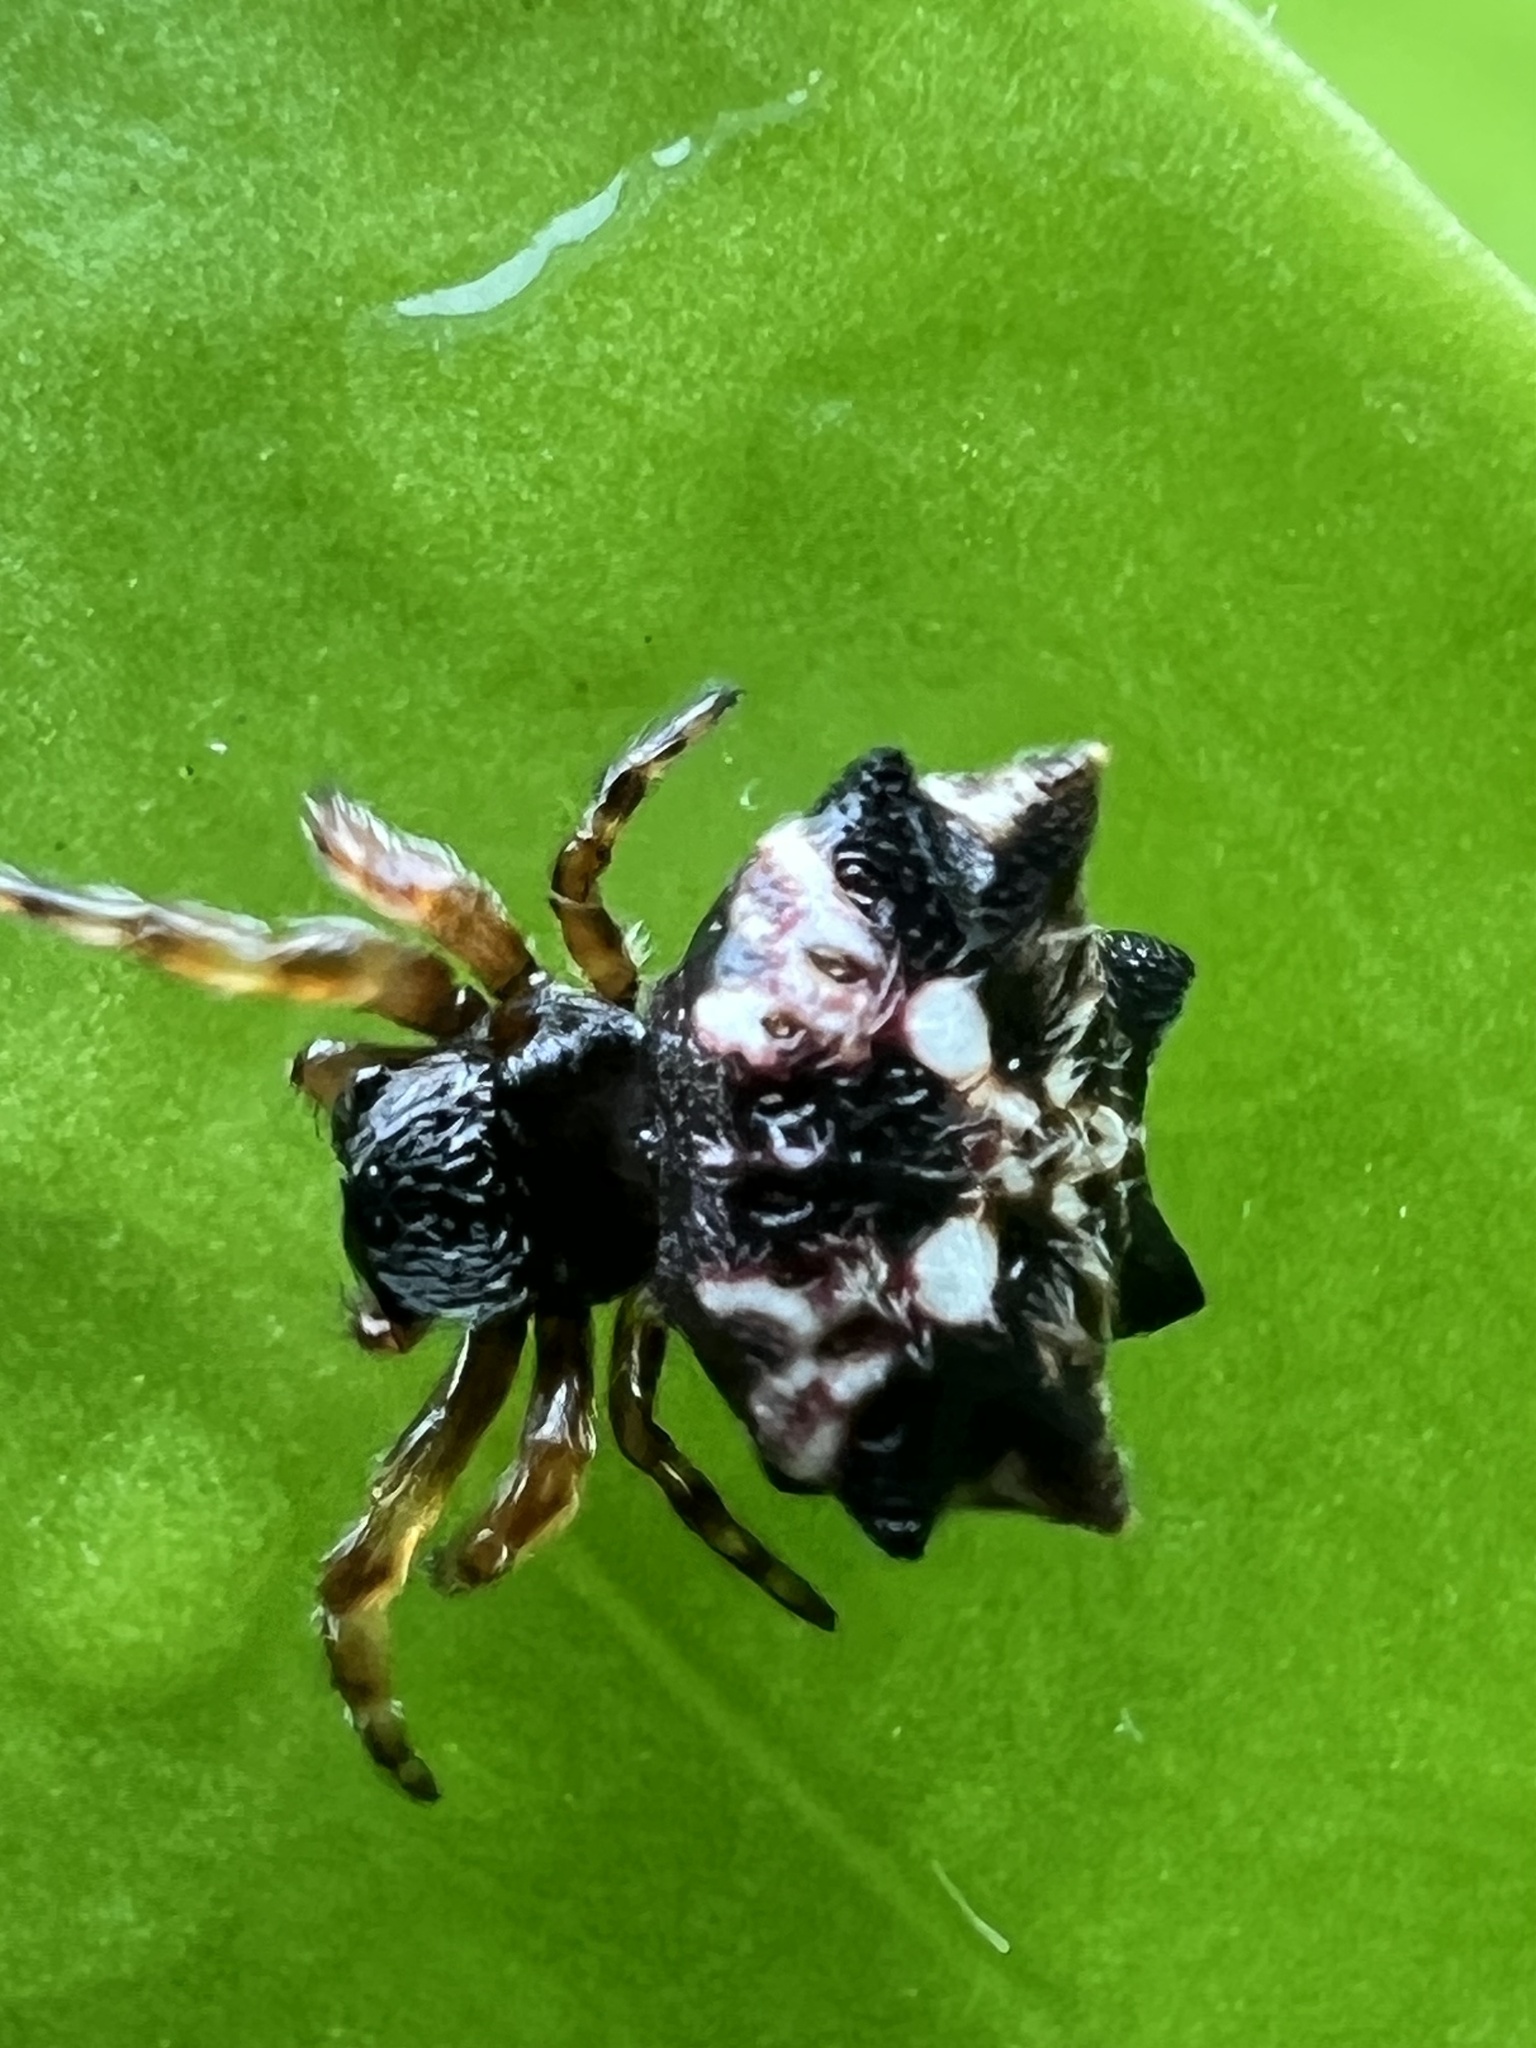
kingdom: Animalia
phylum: Arthropoda
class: Arachnida
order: Araneae
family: Araneidae
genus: Thelacantha
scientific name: Thelacantha brevispina
